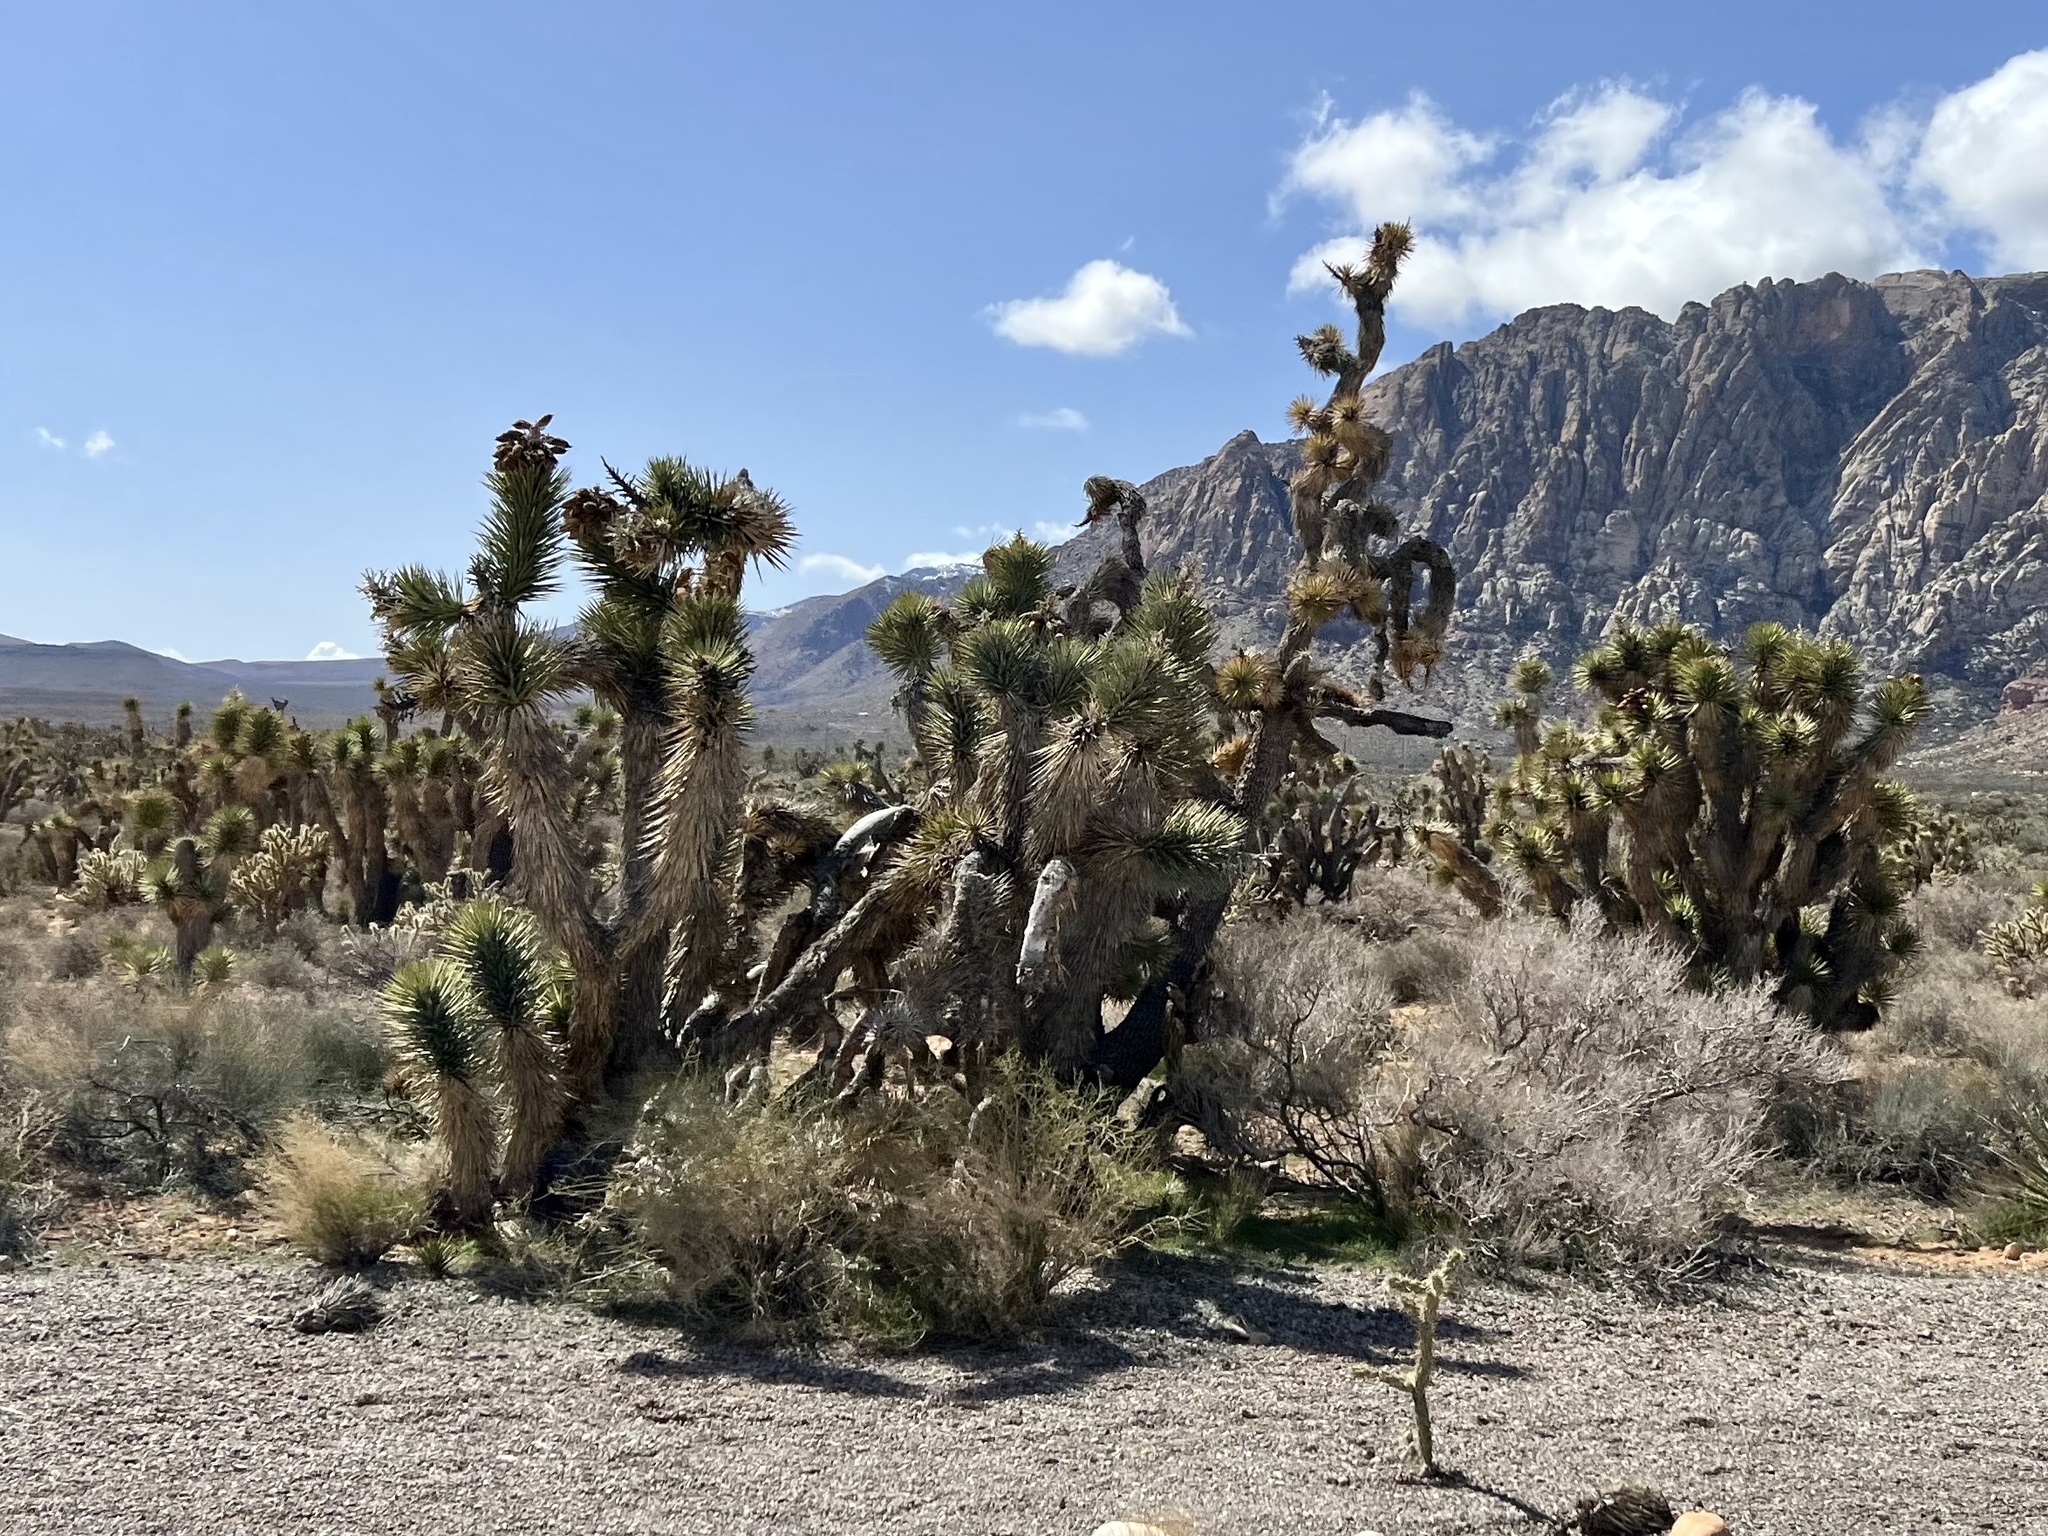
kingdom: Plantae
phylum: Tracheophyta
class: Liliopsida
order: Asparagales
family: Asparagaceae
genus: Yucca
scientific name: Yucca brevifolia
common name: Joshua tree
